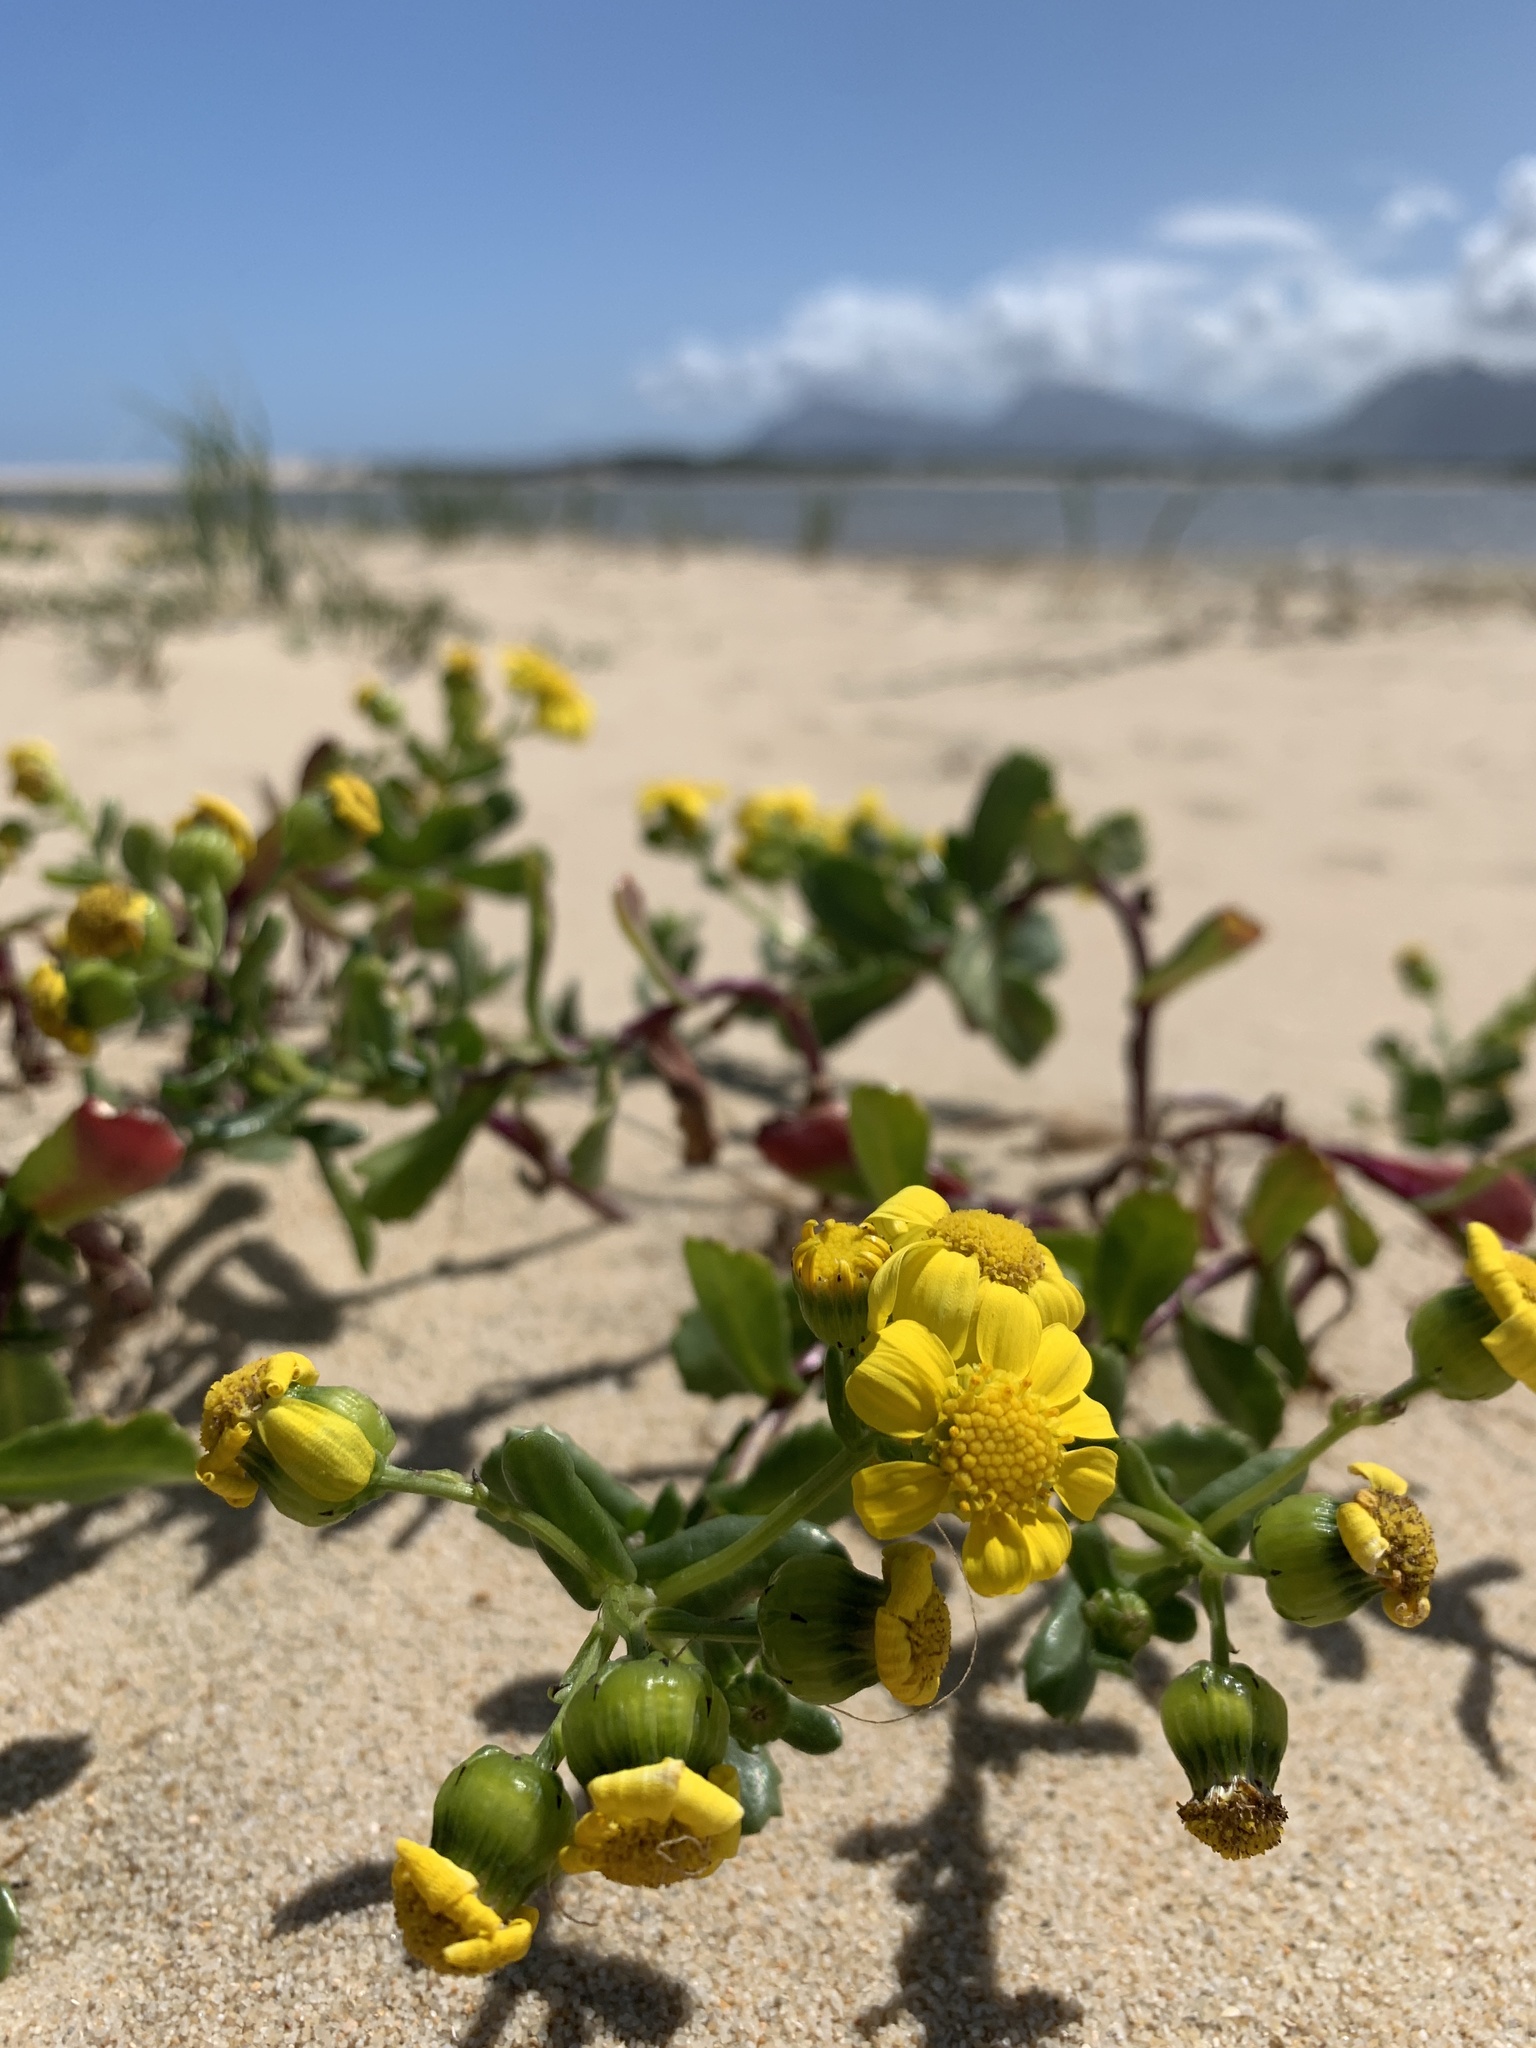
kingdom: Plantae
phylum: Tracheophyta
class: Magnoliopsida
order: Asterales
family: Asteraceae
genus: Senecio
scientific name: Senecio maritimus
